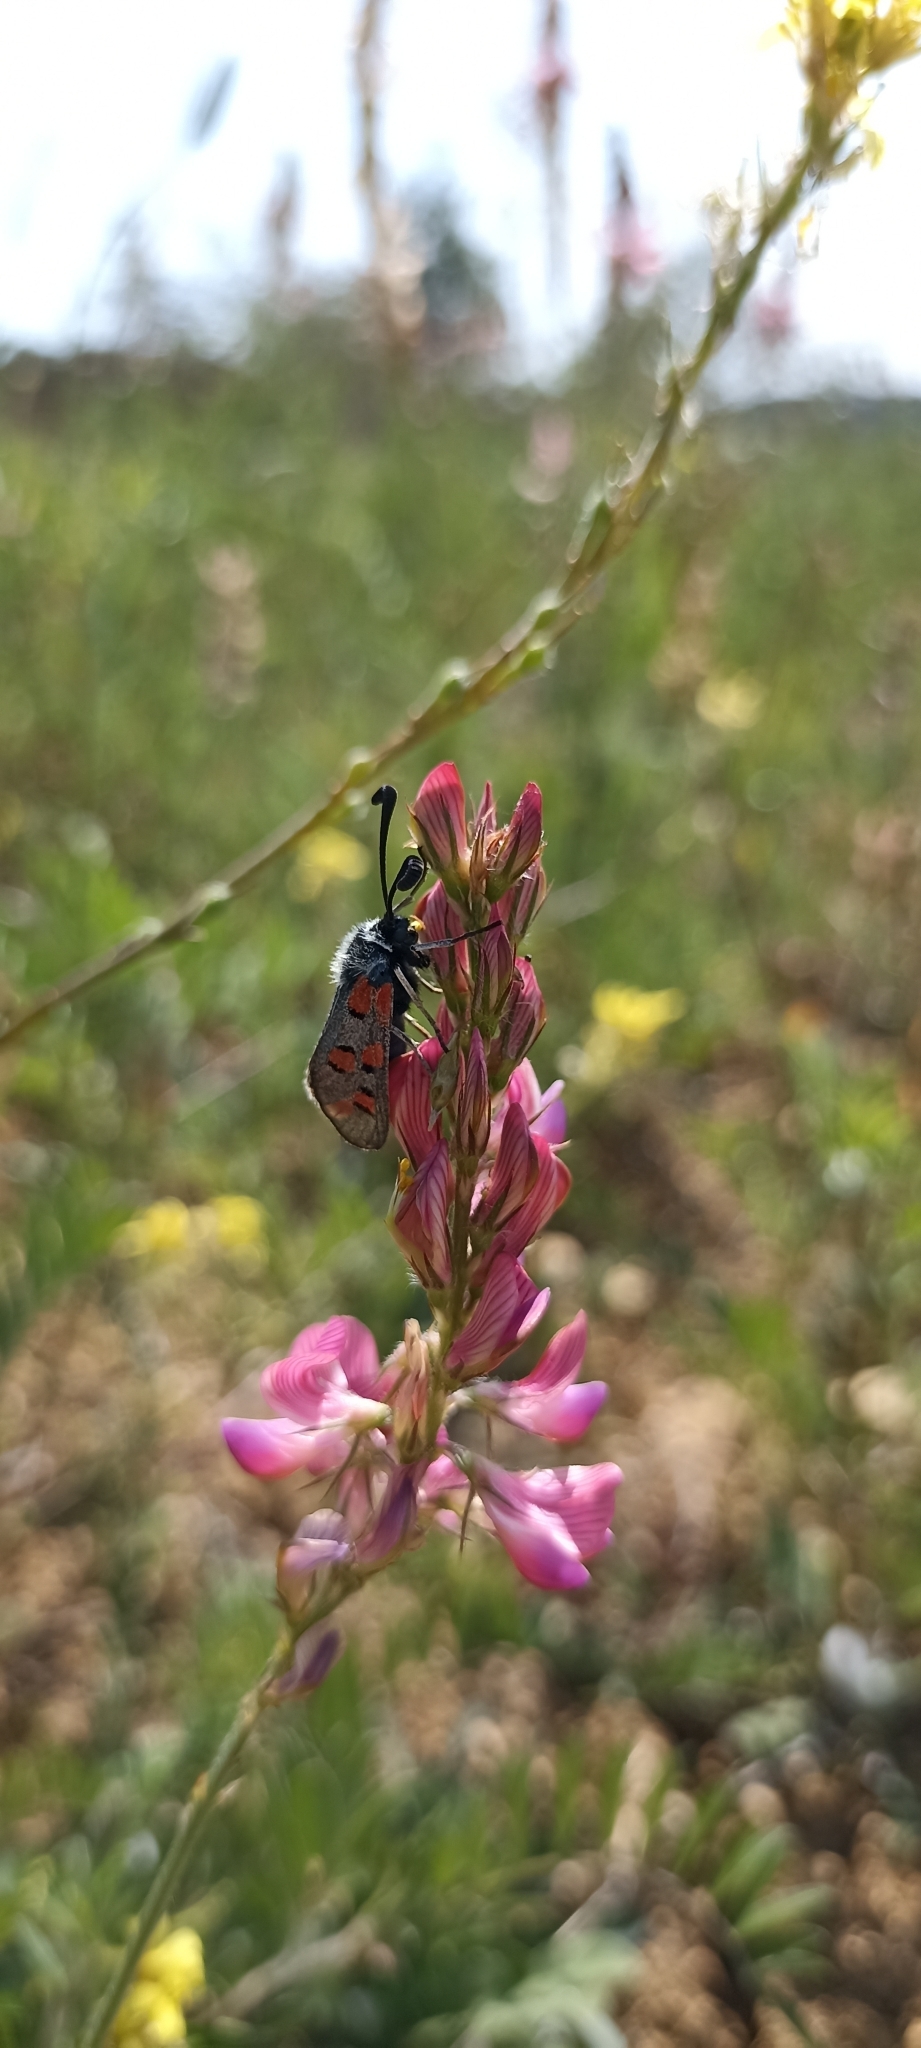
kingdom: Animalia
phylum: Arthropoda
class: Insecta
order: Lepidoptera
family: Zygaenidae
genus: Zygaena
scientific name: Zygaena rhadamanthus
